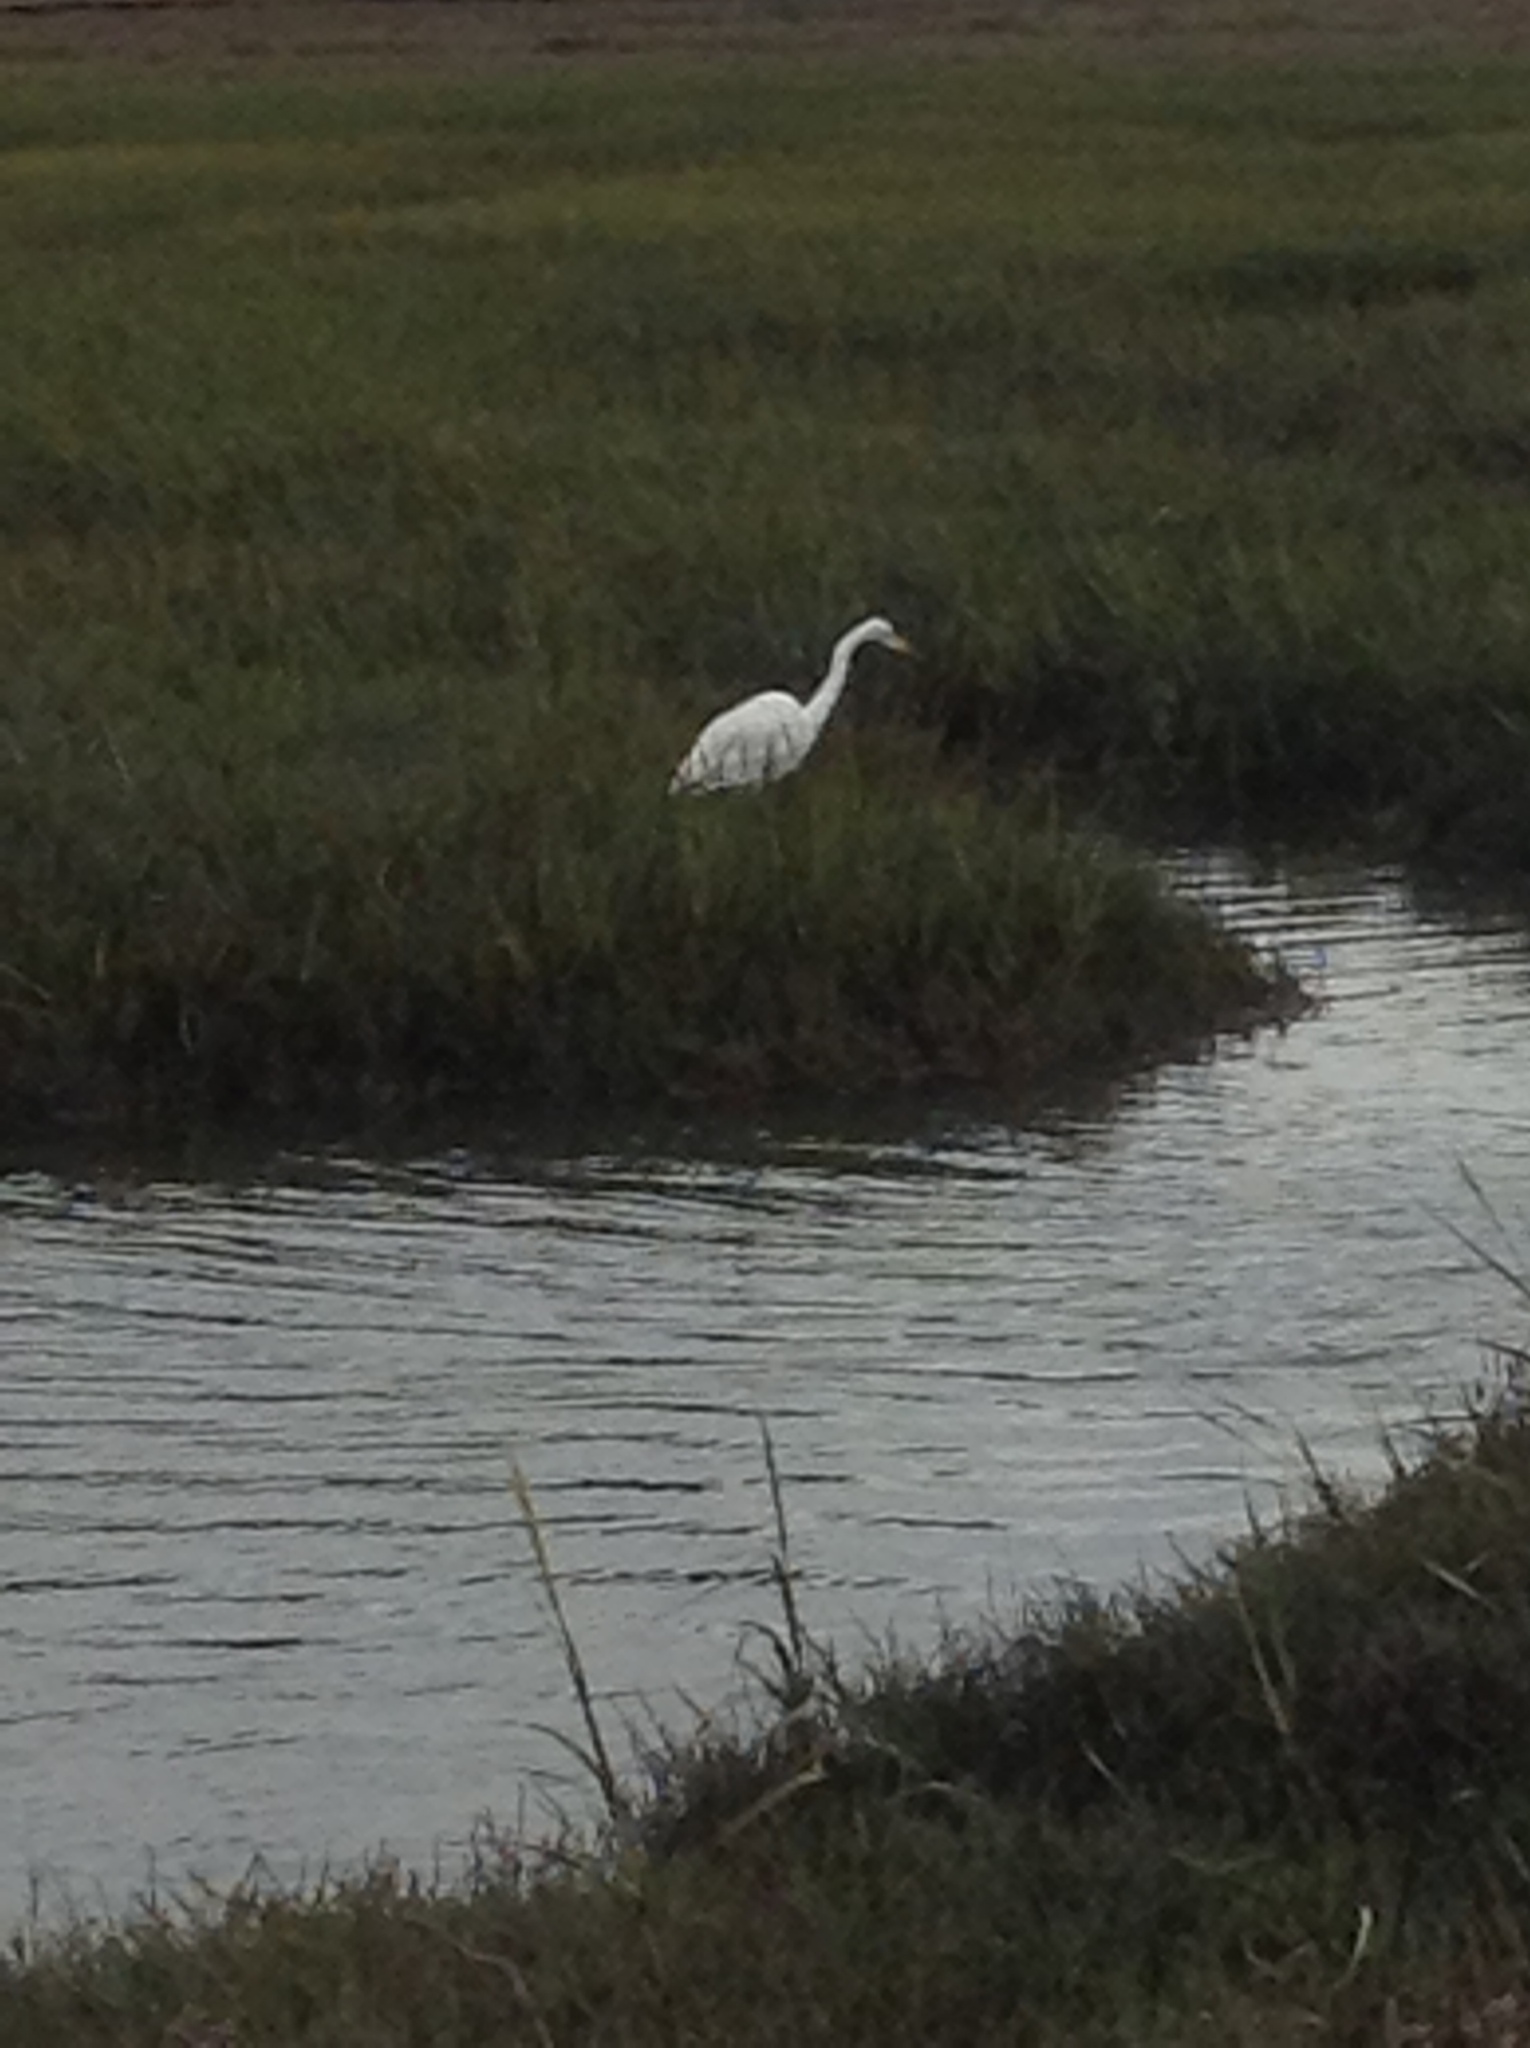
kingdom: Animalia
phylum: Chordata
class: Aves
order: Pelecaniformes
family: Ardeidae
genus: Ardea
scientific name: Ardea alba
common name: Great egret
